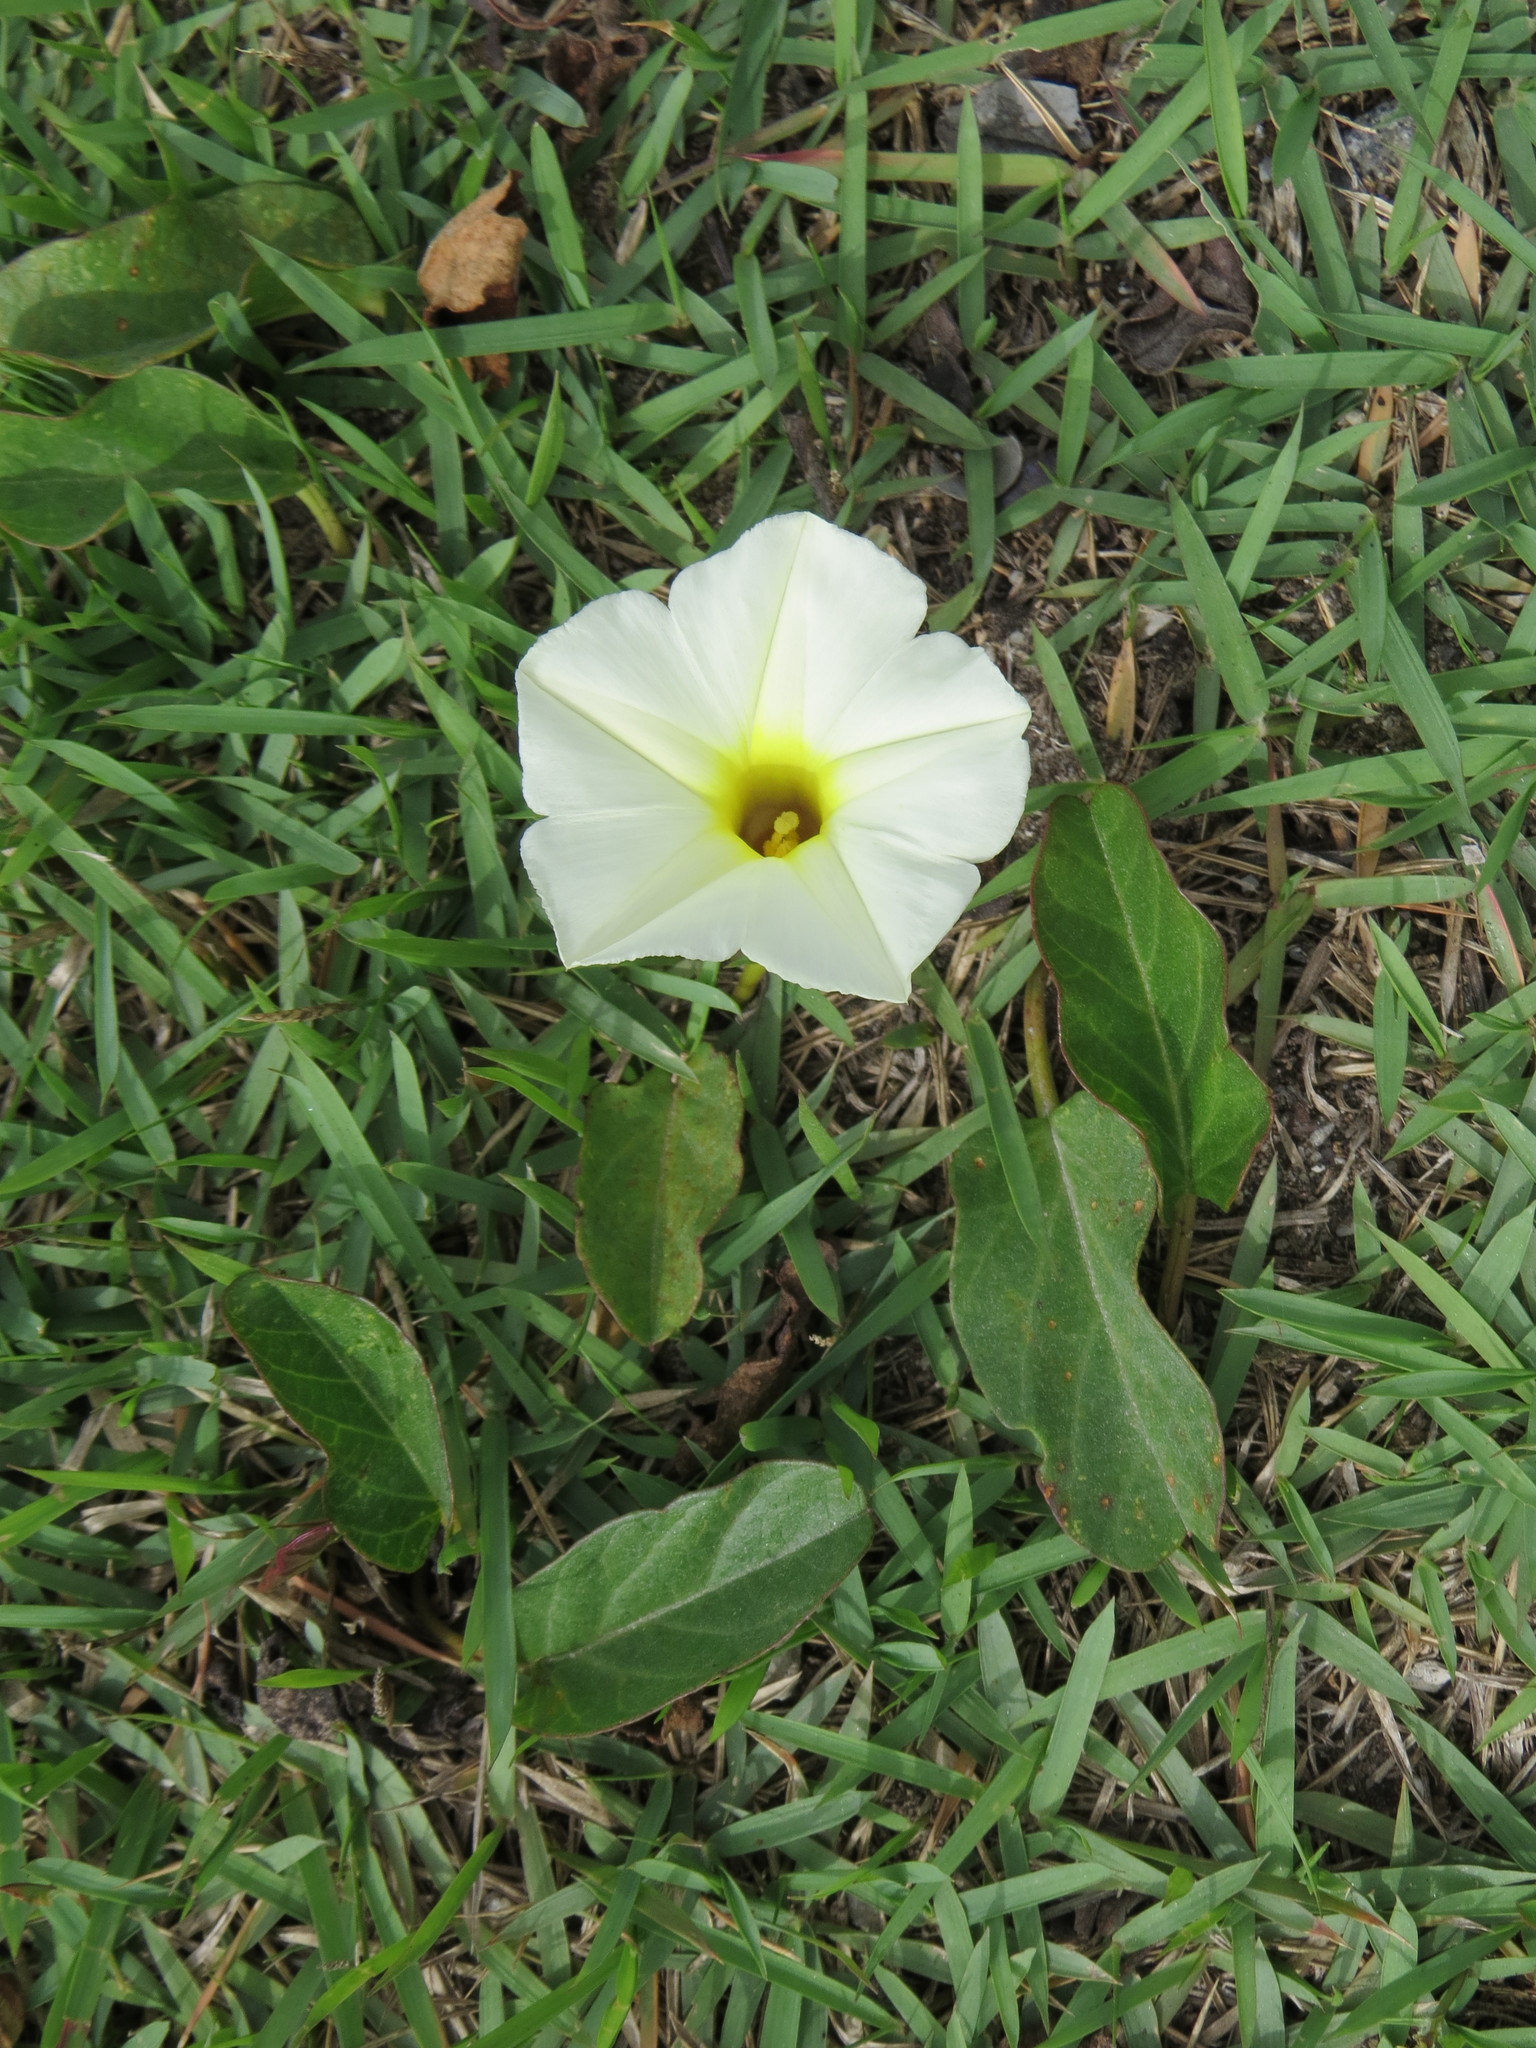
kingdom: Plantae
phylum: Tracheophyta
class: Magnoliopsida
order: Solanales
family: Convolvulaceae
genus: Ipomoea
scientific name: Ipomoea imperati
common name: Fiddle-leaf morning-glory
